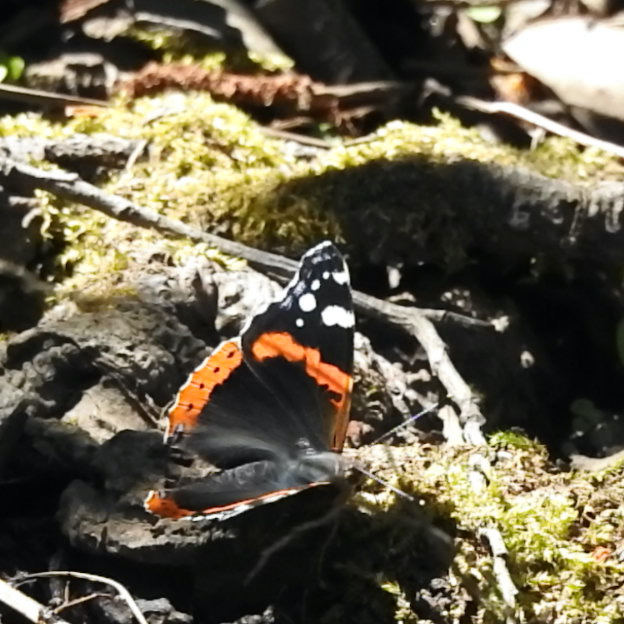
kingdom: Animalia
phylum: Arthropoda
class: Insecta
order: Lepidoptera
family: Nymphalidae
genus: Vanessa
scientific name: Vanessa atalanta
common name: Red admiral
